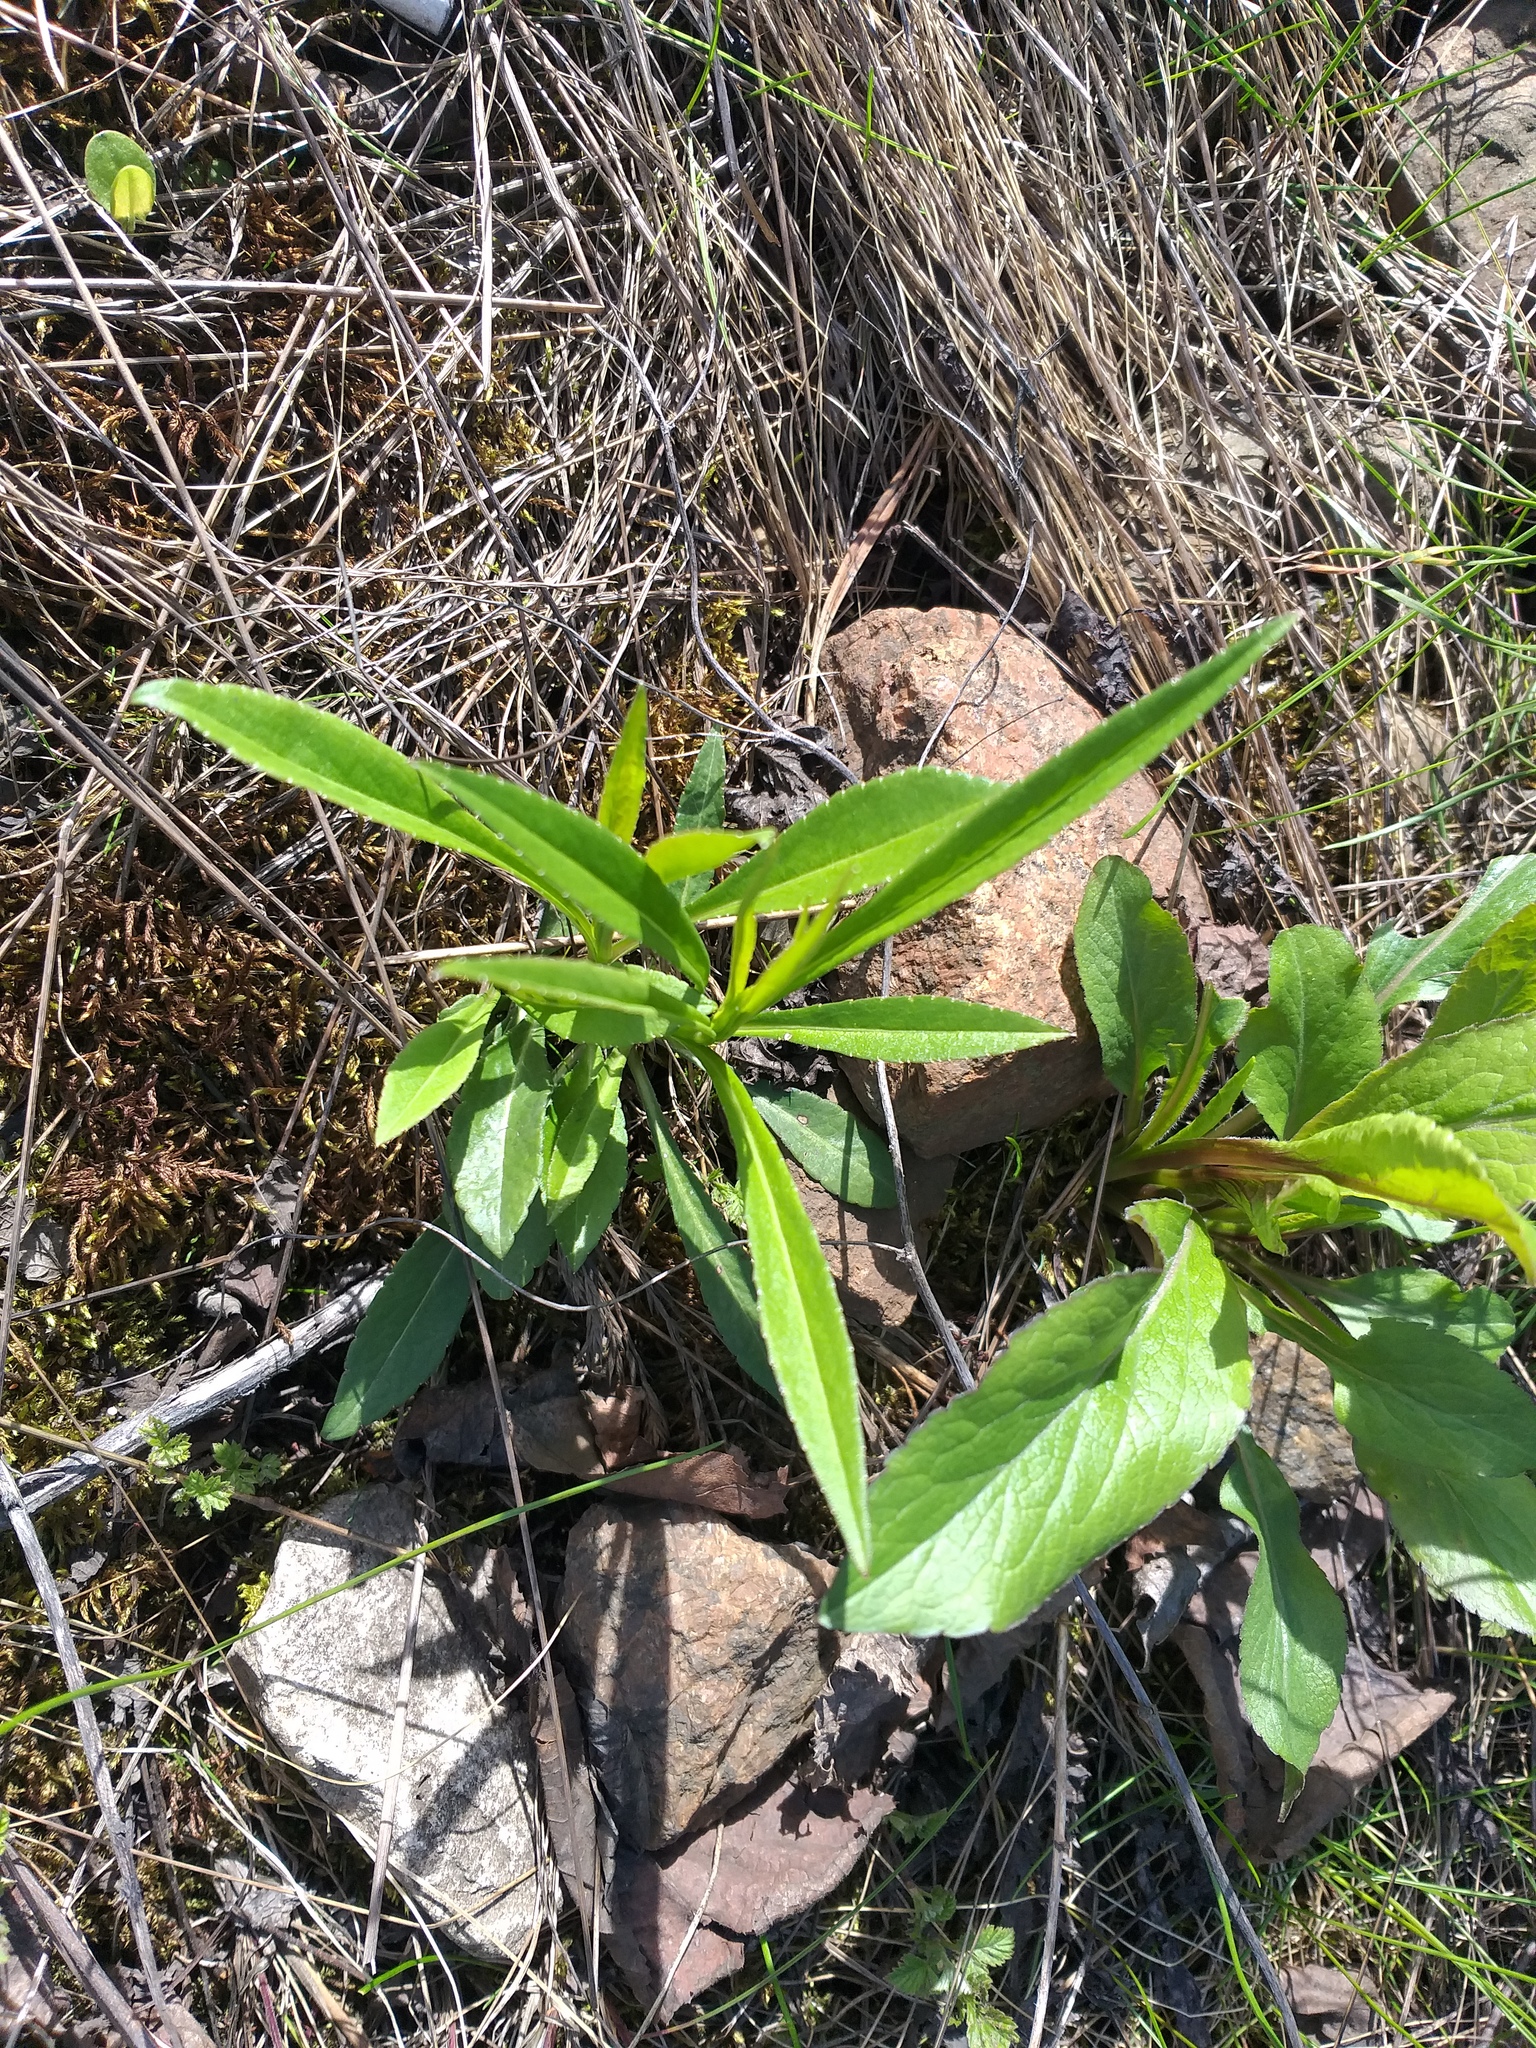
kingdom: Plantae
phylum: Tracheophyta
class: Magnoliopsida
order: Asterales
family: Campanulaceae
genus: Campanula
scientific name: Campanula persicifolia
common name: Peach-leaved bellflower
